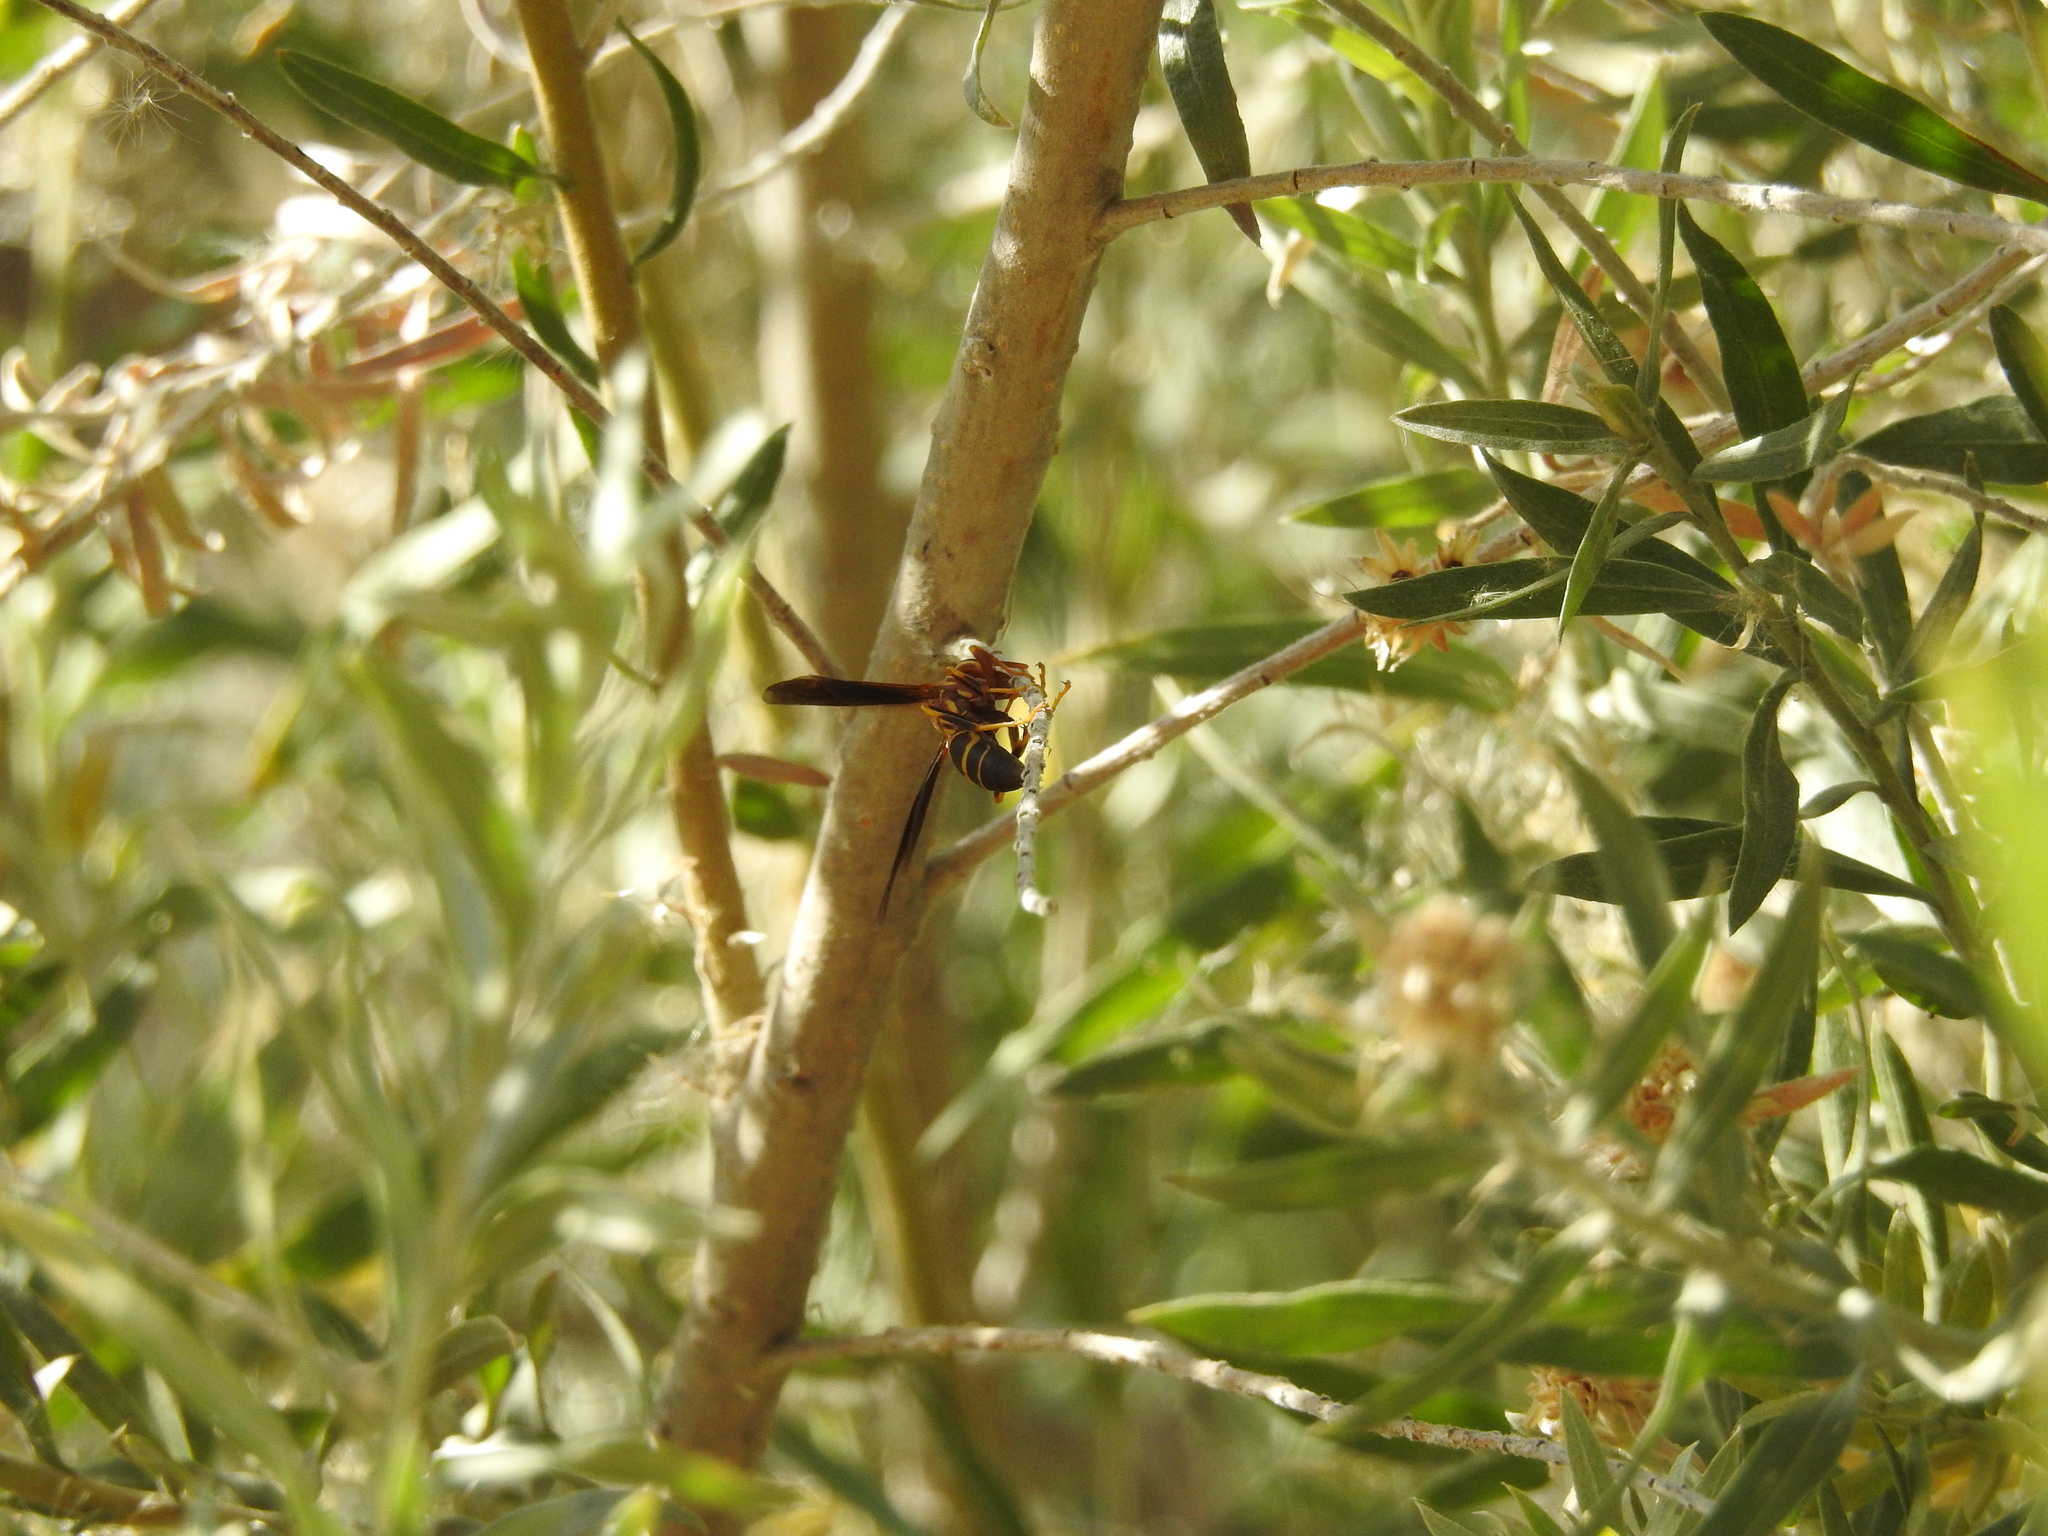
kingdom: Animalia
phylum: Arthropoda
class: Insecta
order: Hymenoptera
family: Eumenidae
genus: Polistes
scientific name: Polistes arizonensis
